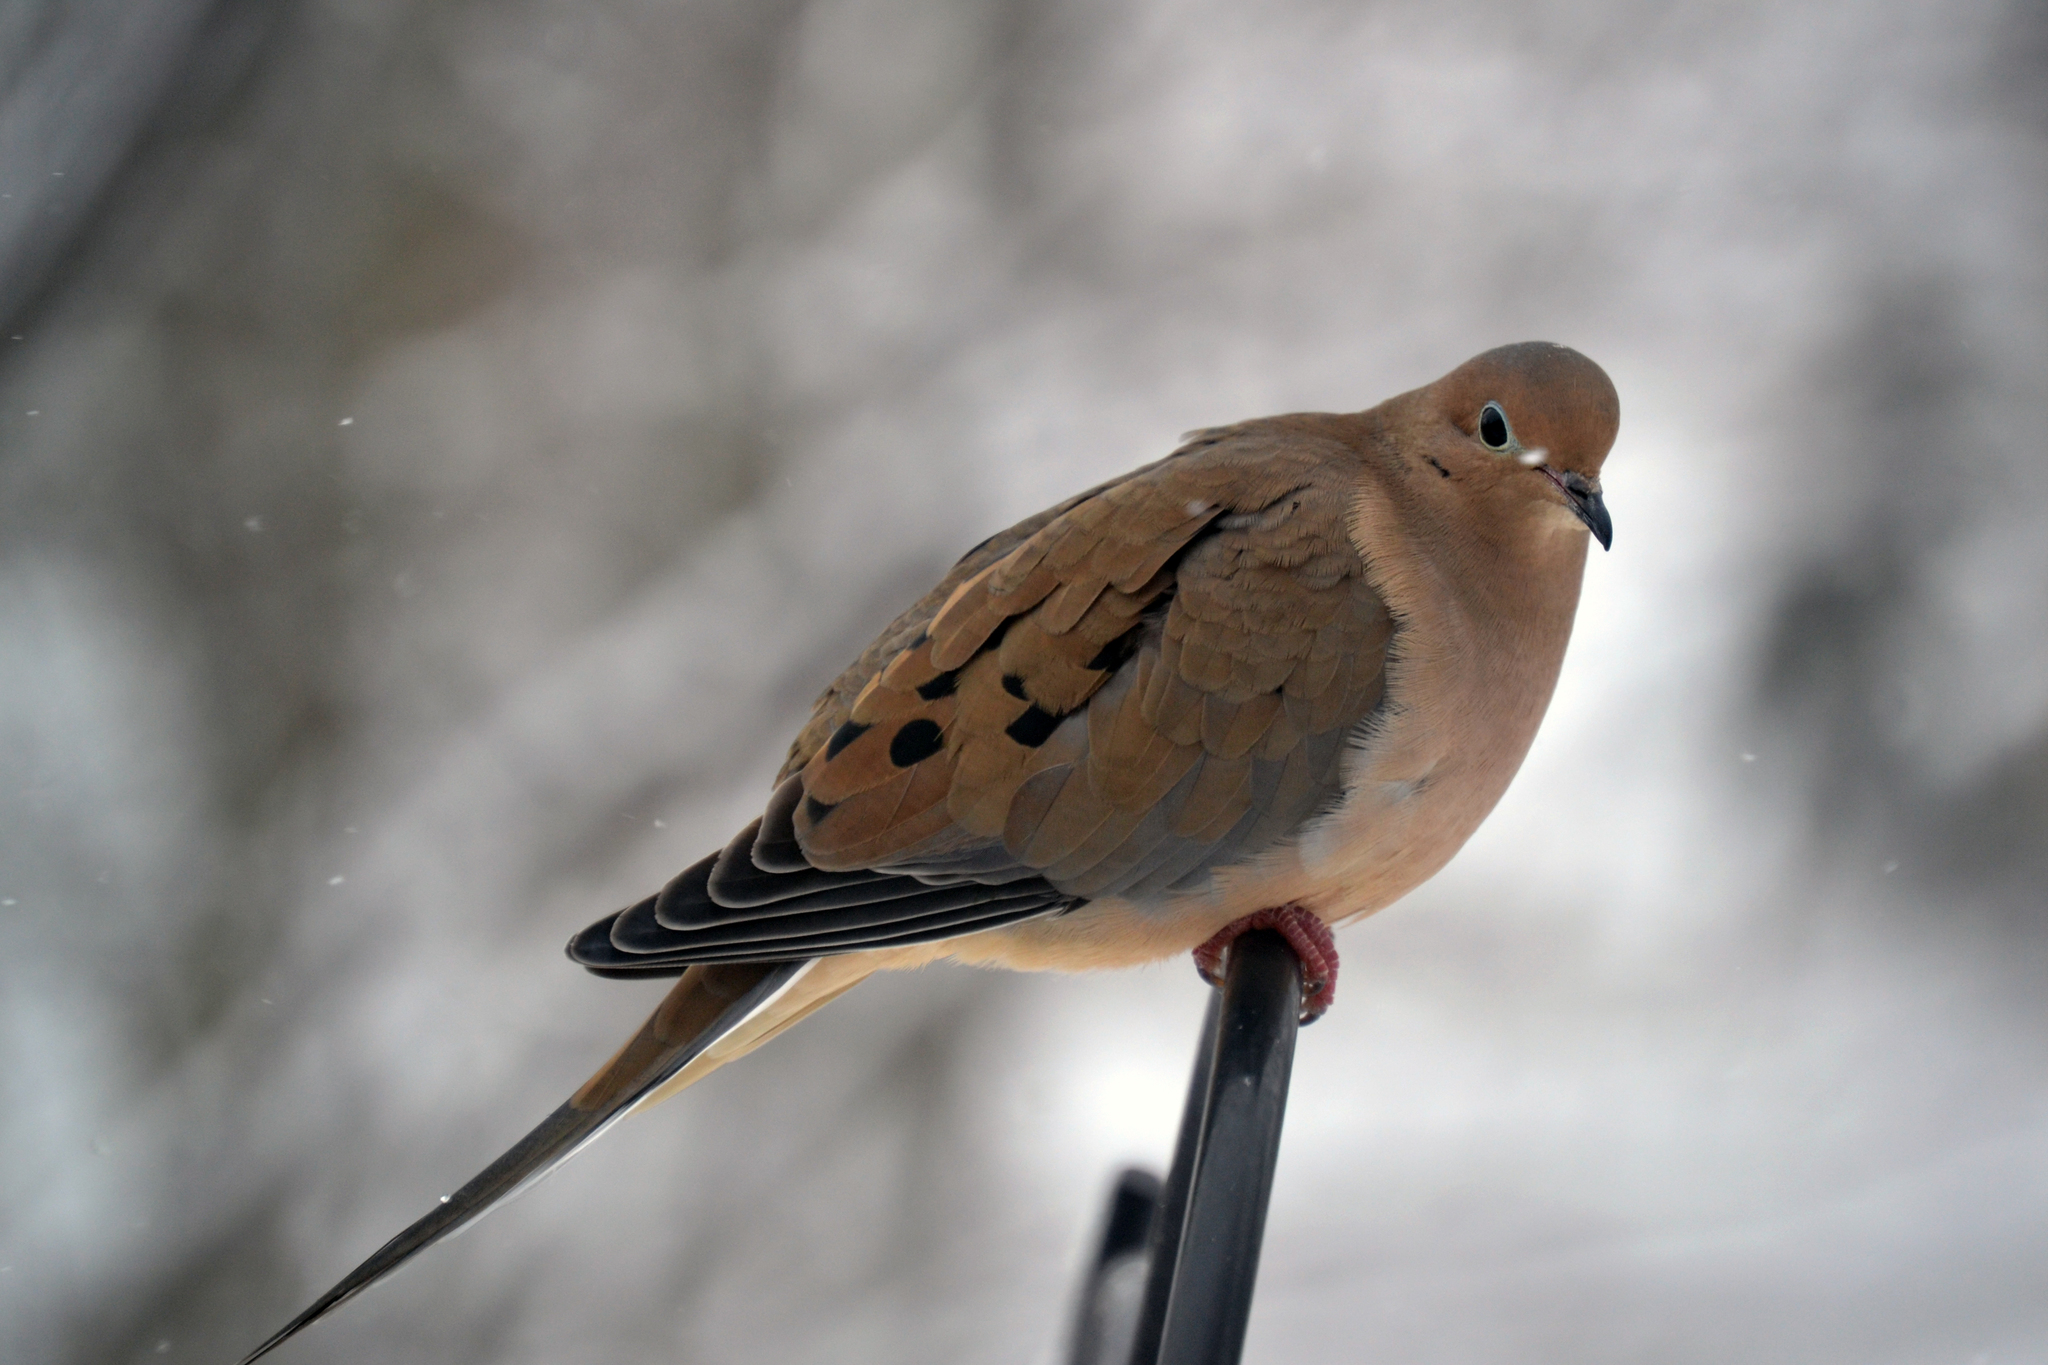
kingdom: Animalia
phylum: Chordata
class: Aves
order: Columbiformes
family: Columbidae
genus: Zenaida
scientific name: Zenaida macroura
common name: Mourning dove
